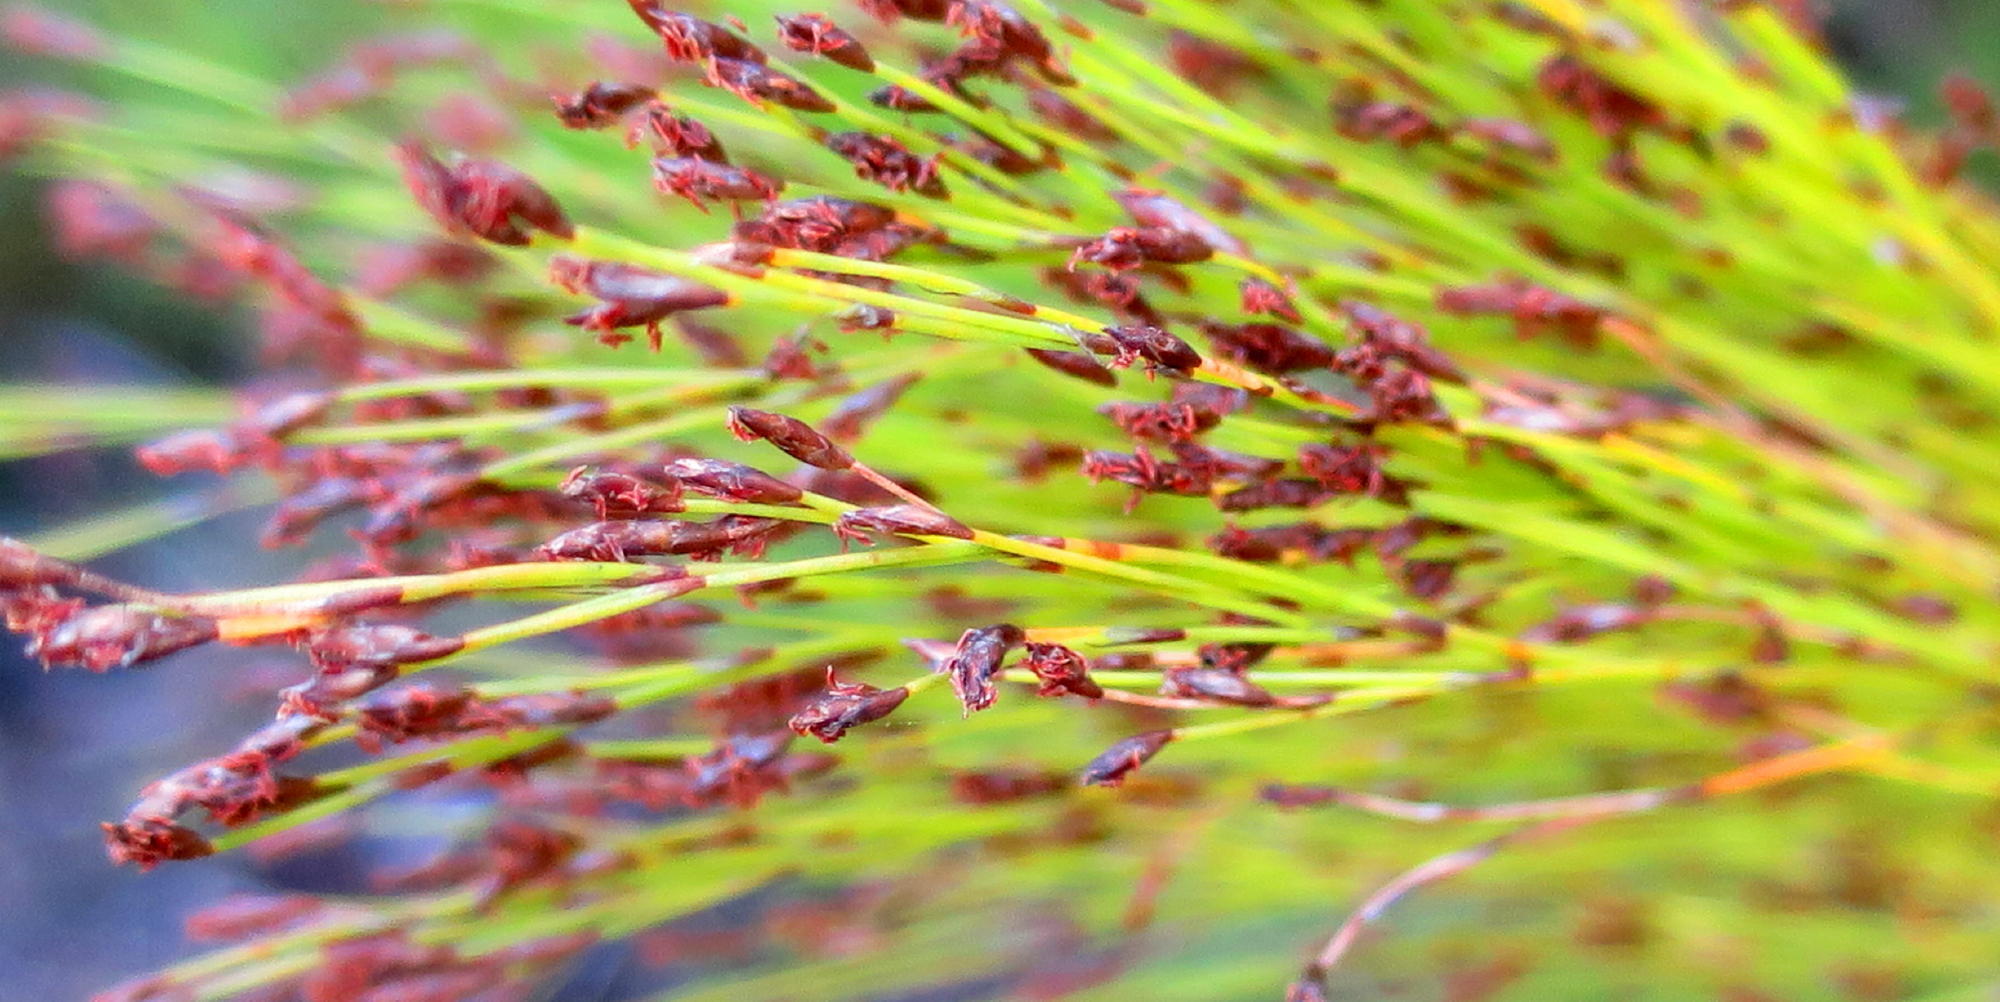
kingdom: Plantae
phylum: Tracheophyta
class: Liliopsida
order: Poales
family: Restionaceae
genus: Restio
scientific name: Restio leptoclados
